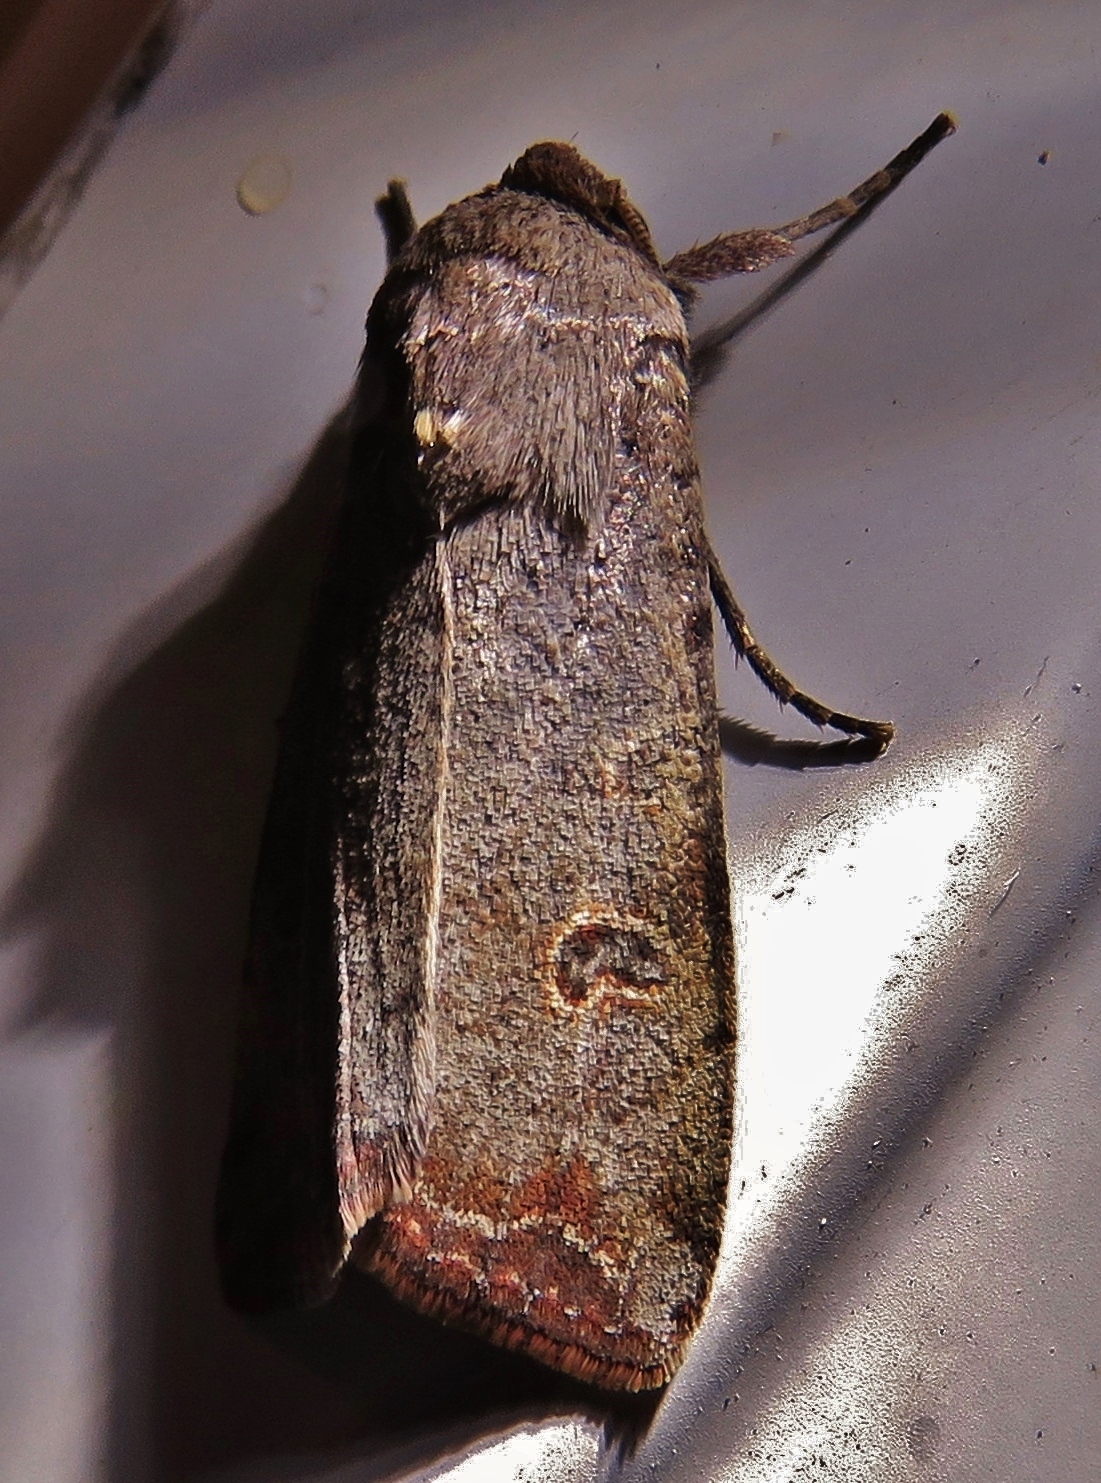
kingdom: Animalia
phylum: Arthropoda
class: Insecta
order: Lepidoptera
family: Noctuidae
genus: Anicla
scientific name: Anicla infecta
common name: Green cutworm
